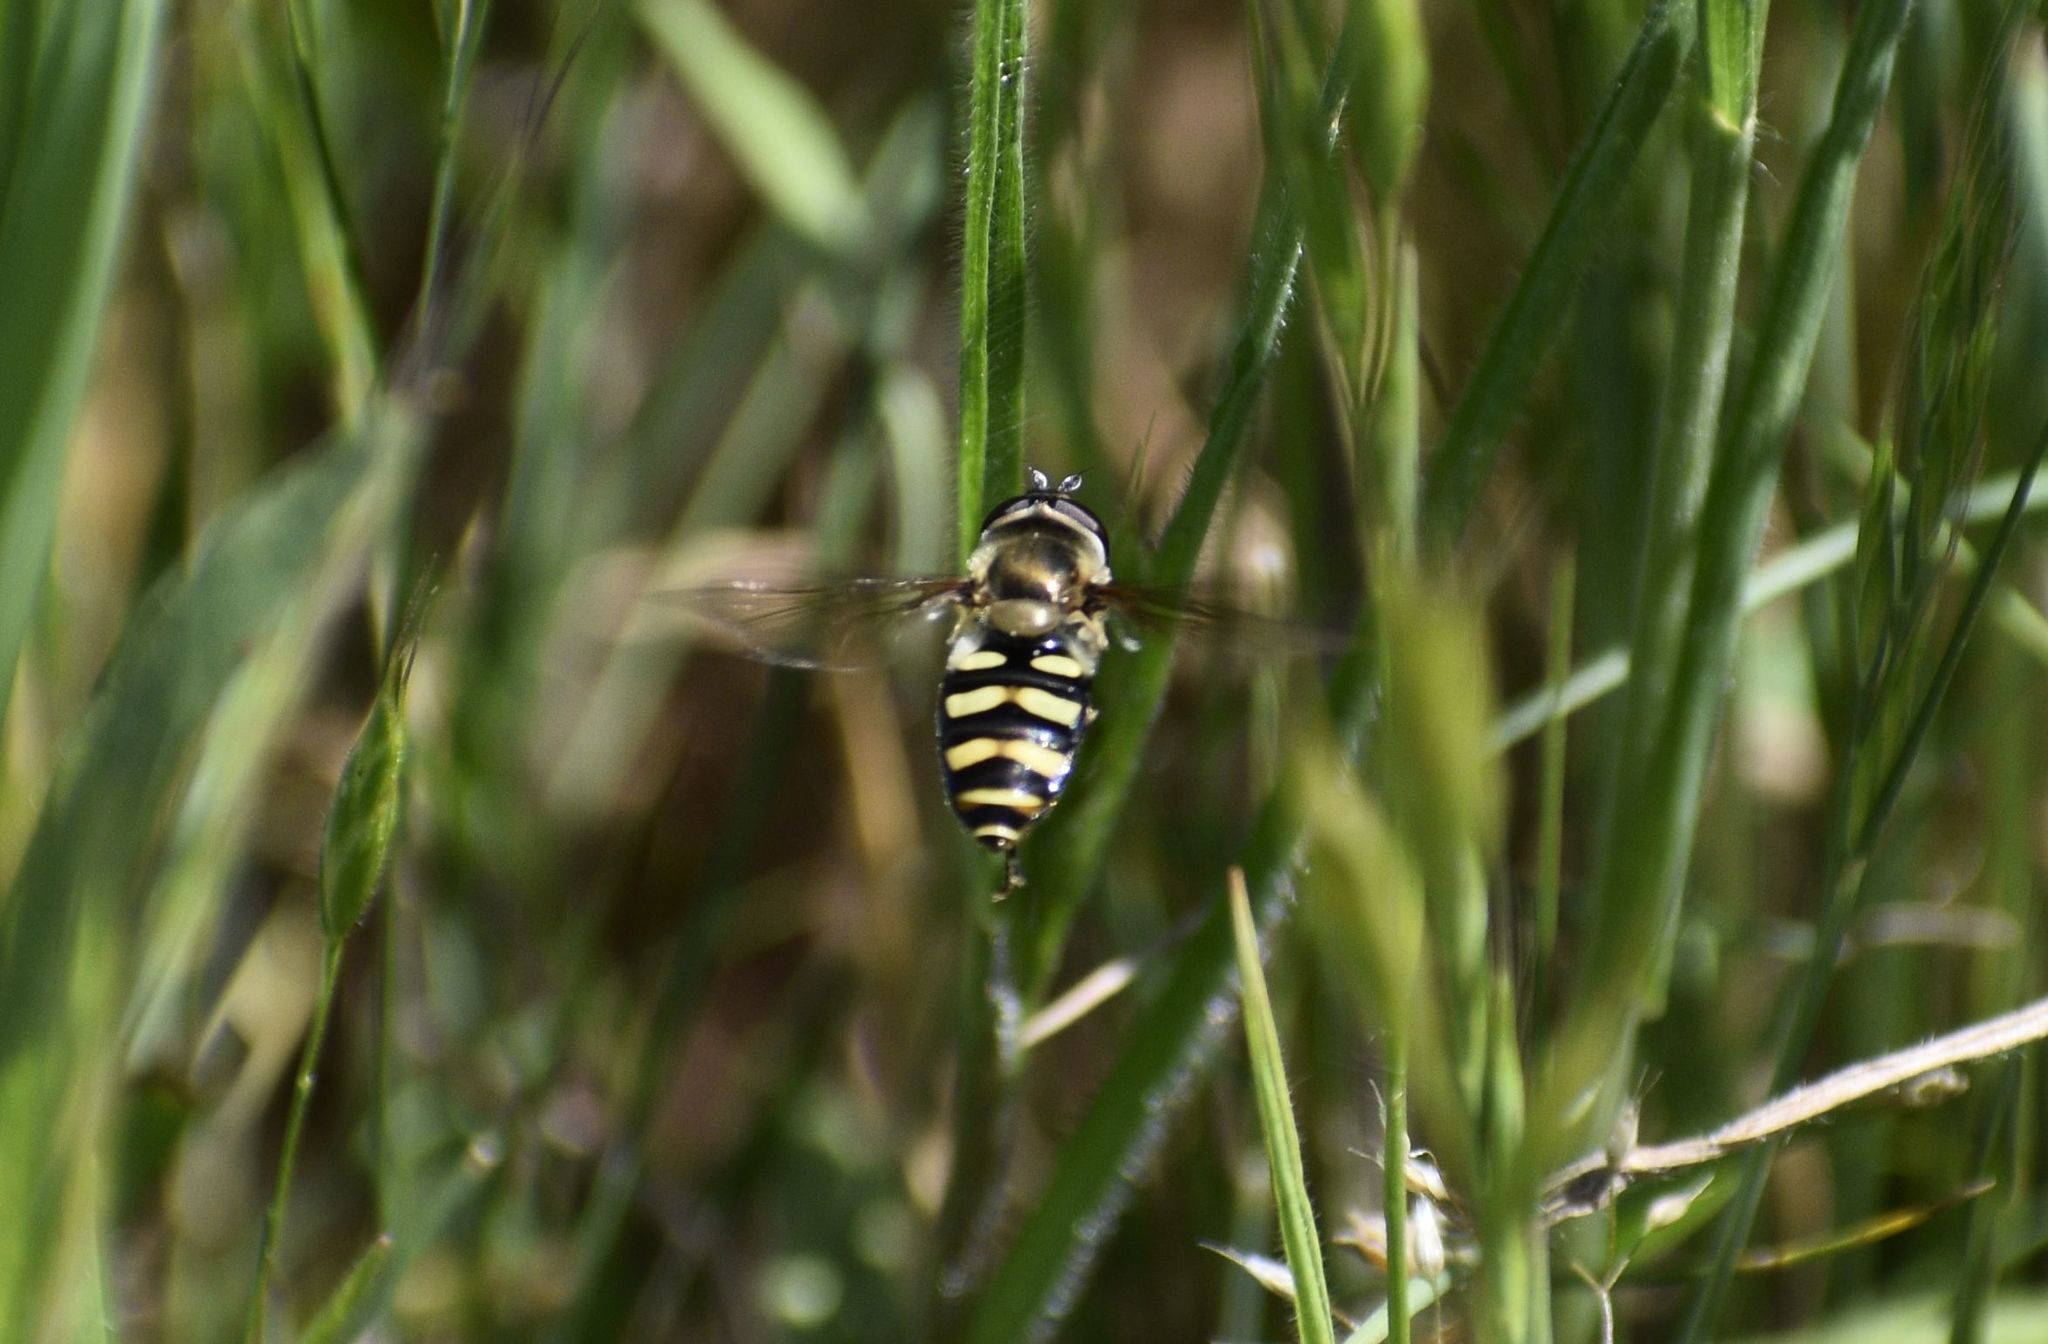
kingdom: Animalia
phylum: Arthropoda
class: Insecta
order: Diptera
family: Syrphidae
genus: Eupeodes
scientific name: Eupeodes fumipennis
